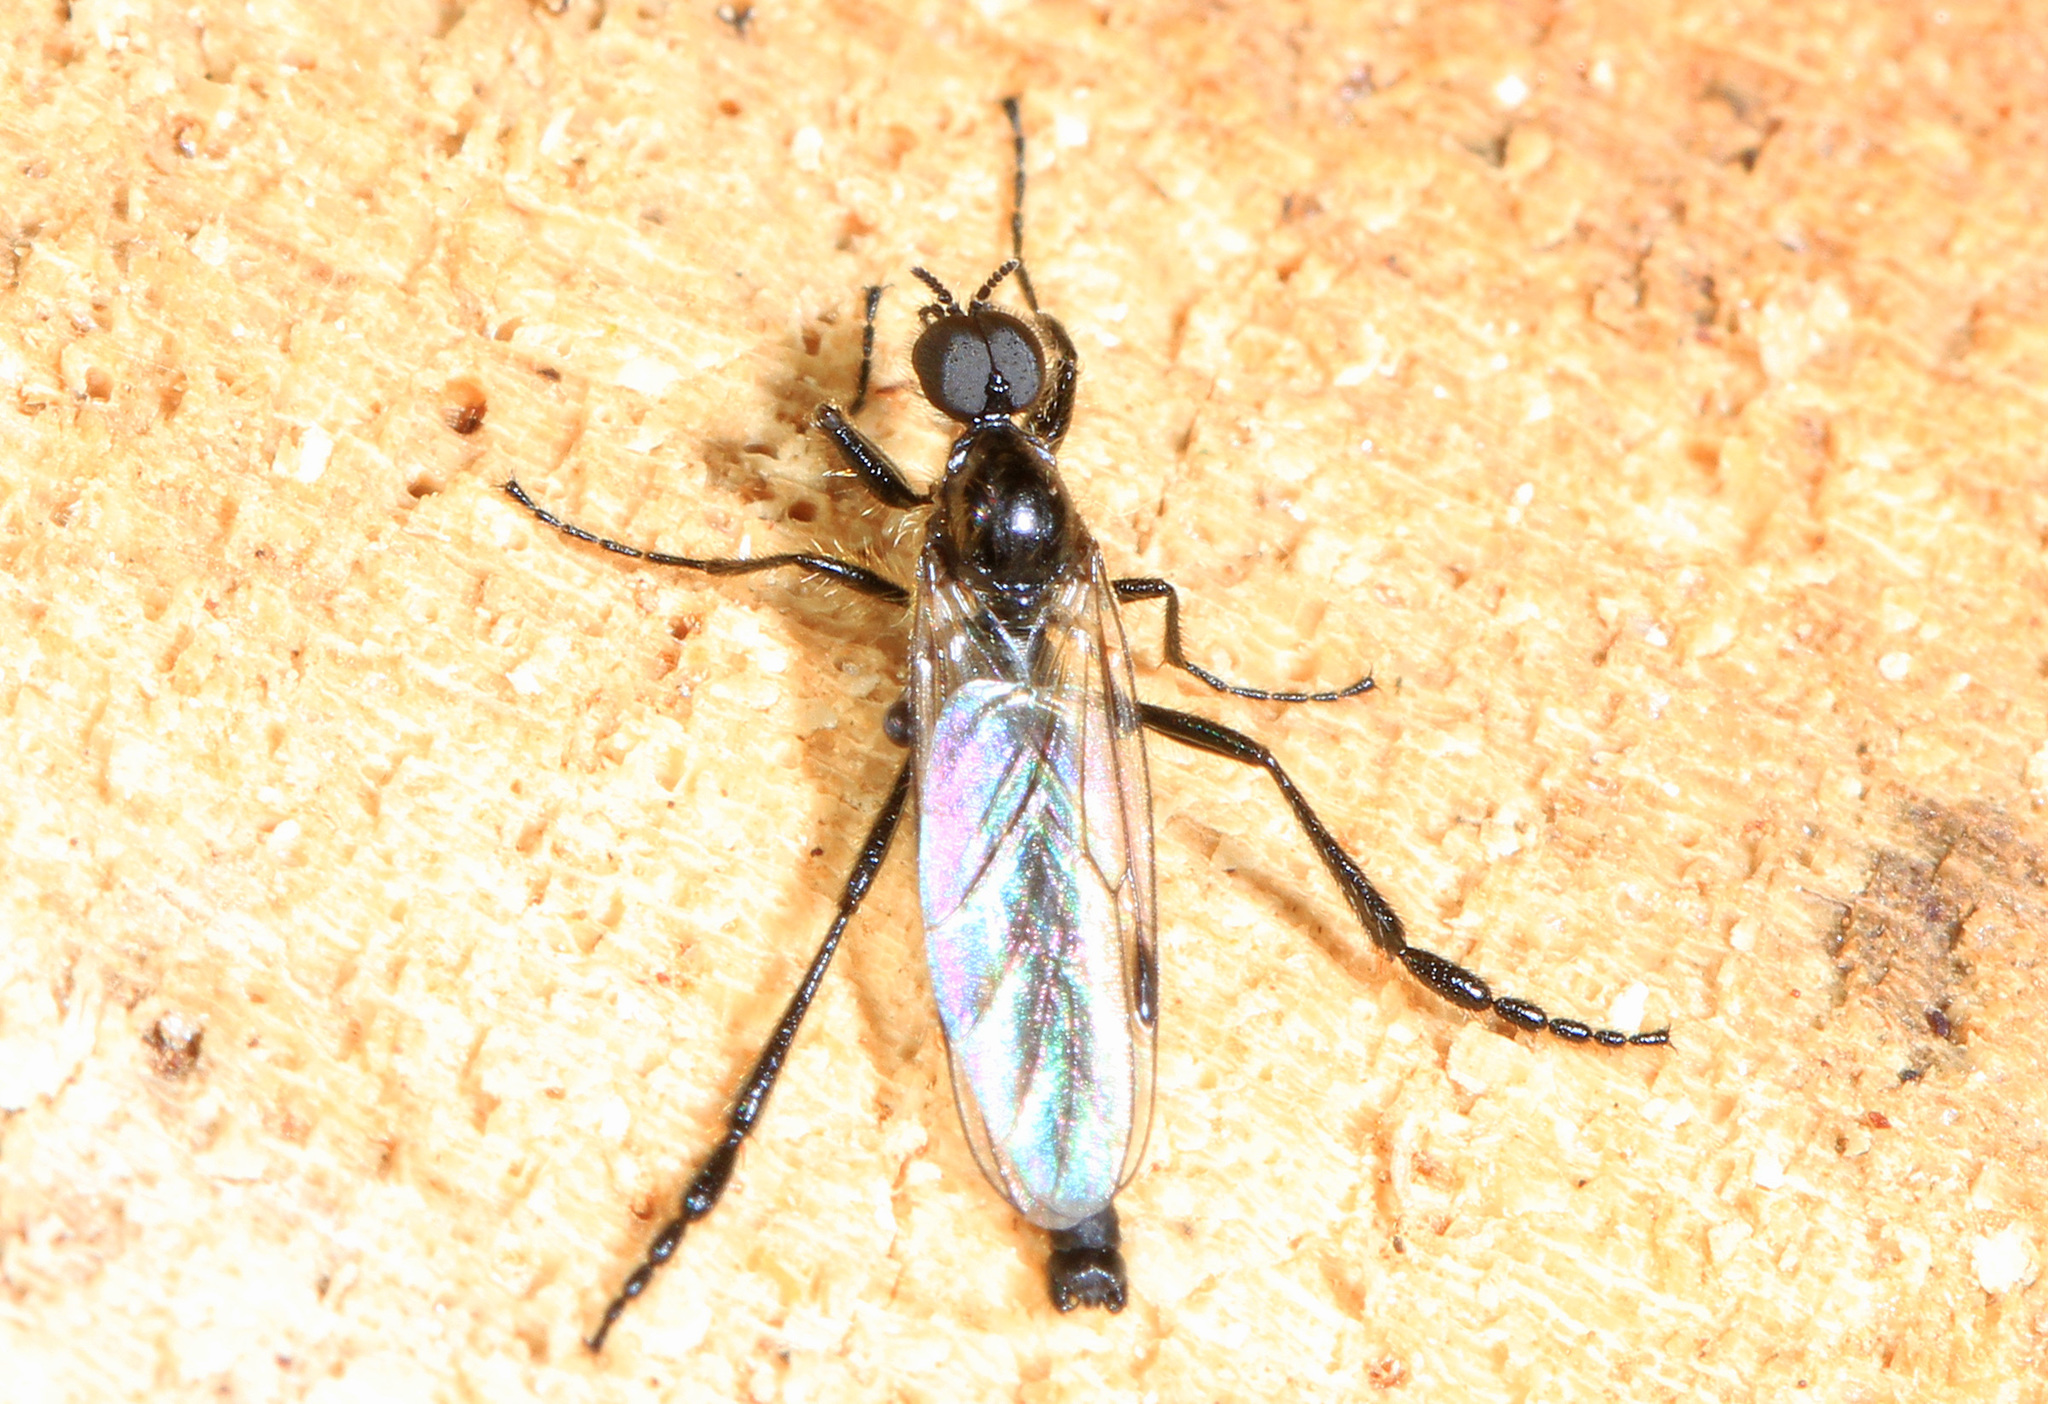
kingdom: Animalia
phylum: Arthropoda
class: Insecta
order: Diptera
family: Bibionidae
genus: Bibio
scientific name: Bibio longipes
